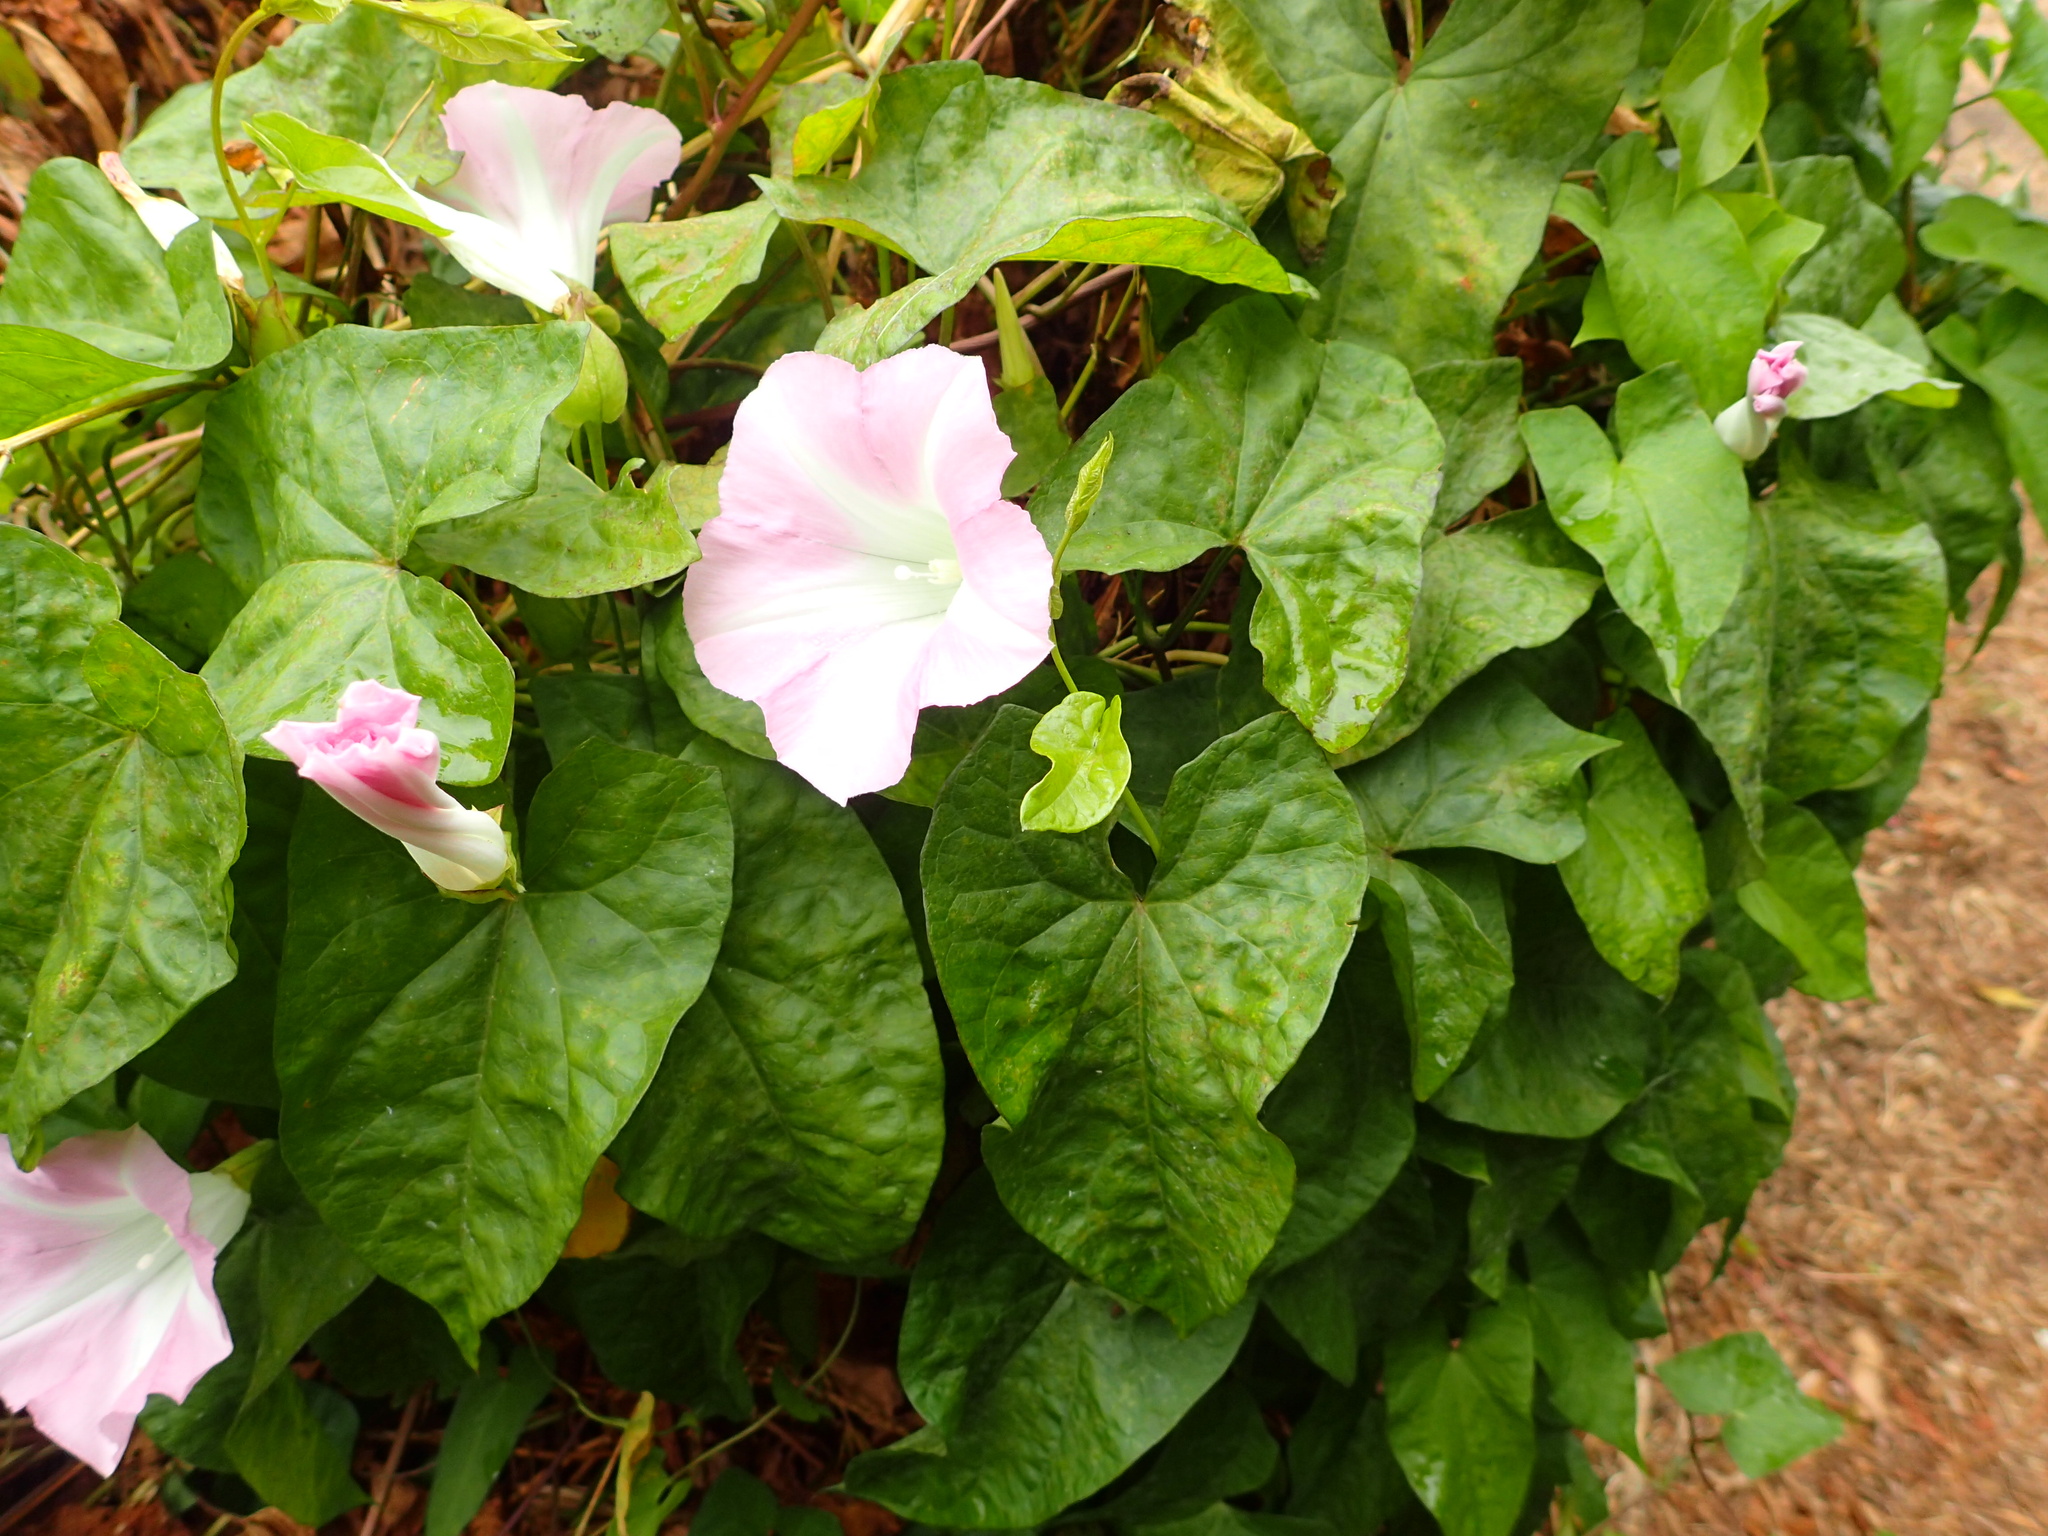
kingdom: Plantae
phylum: Tracheophyta
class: Magnoliopsida
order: Solanales
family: Convolvulaceae
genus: Calystegia
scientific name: Calystegia sepium
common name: Hedge bindweed
